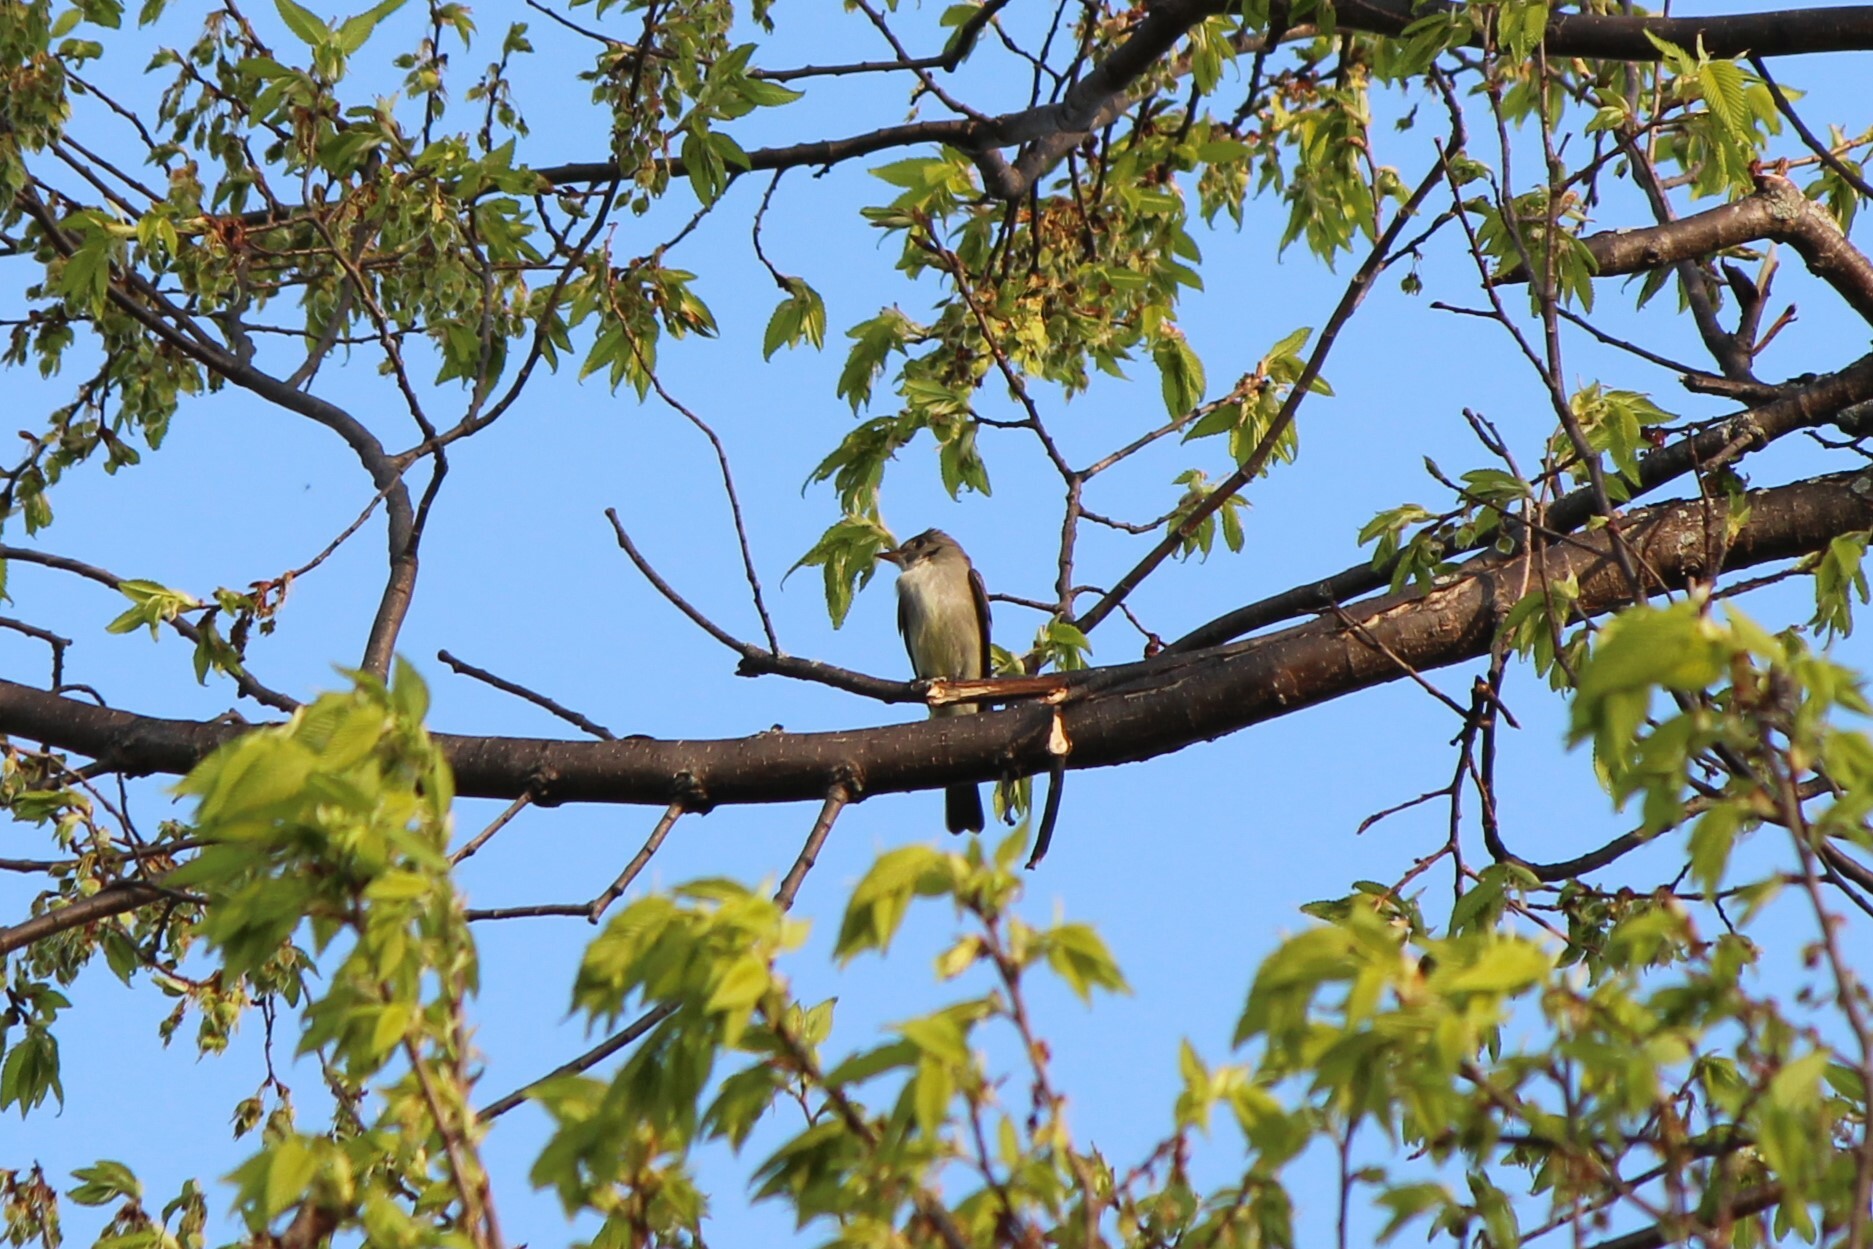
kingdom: Animalia
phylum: Chordata
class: Aves
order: Passeriformes
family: Tyrannidae
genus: Contopus
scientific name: Contopus virens
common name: Eastern wood-pewee
